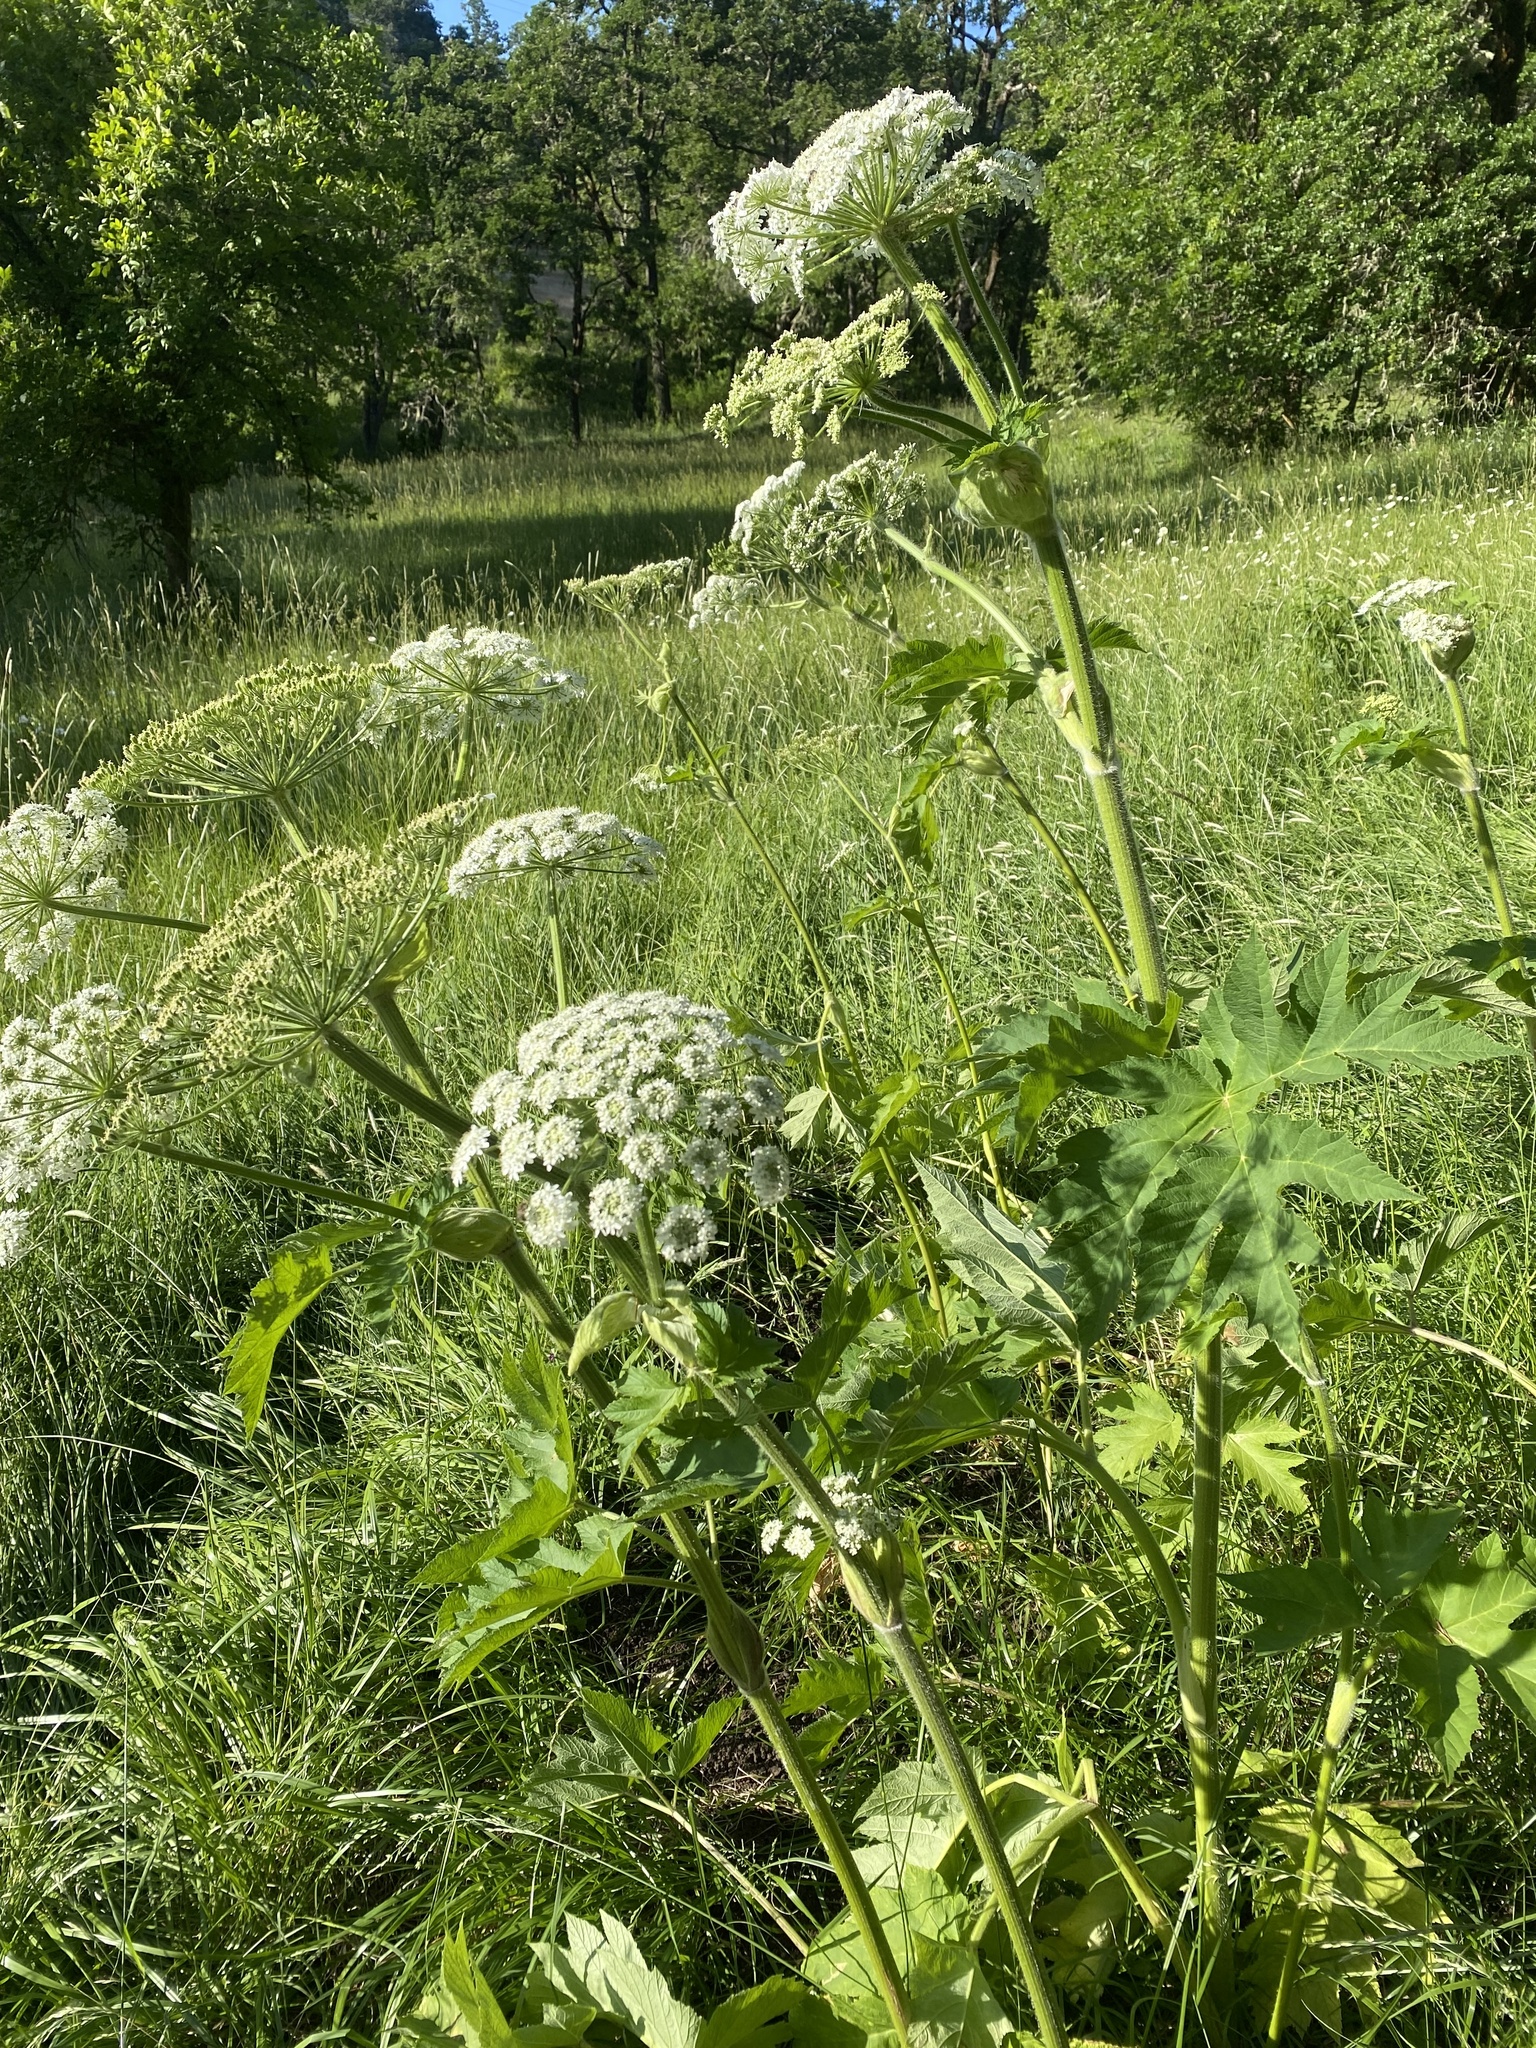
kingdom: Plantae
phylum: Tracheophyta
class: Magnoliopsida
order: Apiales
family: Apiaceae
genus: Heracleum
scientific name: Heracleum maximum
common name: American cow parsnip
